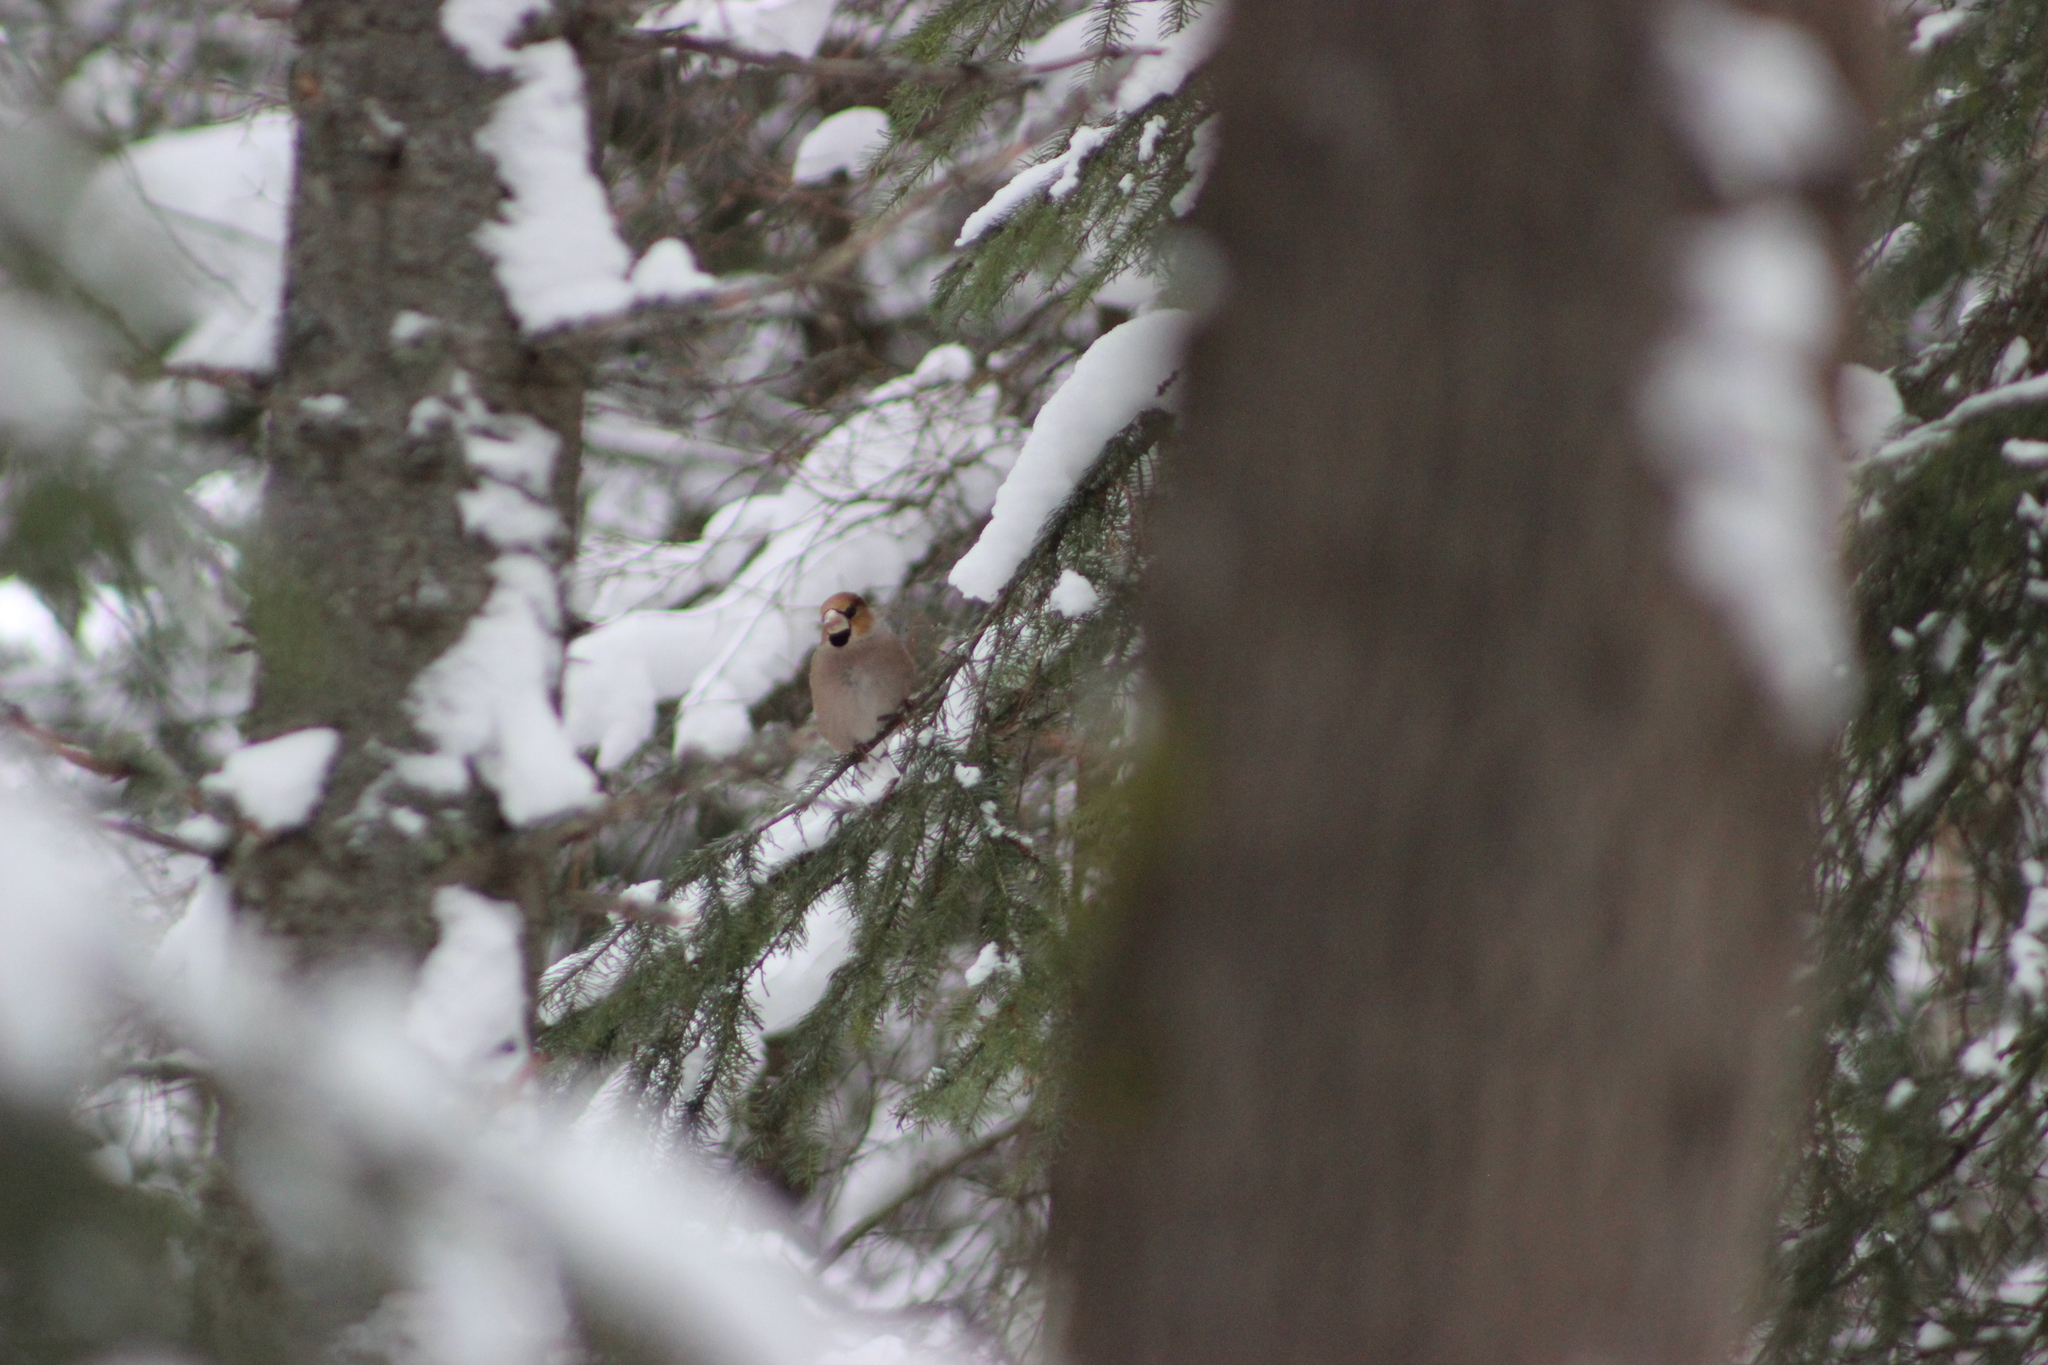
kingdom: Animalia
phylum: Chordata
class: Aves
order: Passeriformes
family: Fringillidae
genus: Coccothraustes
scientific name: Coccothraustes coccothraustes
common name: Hawfinch
